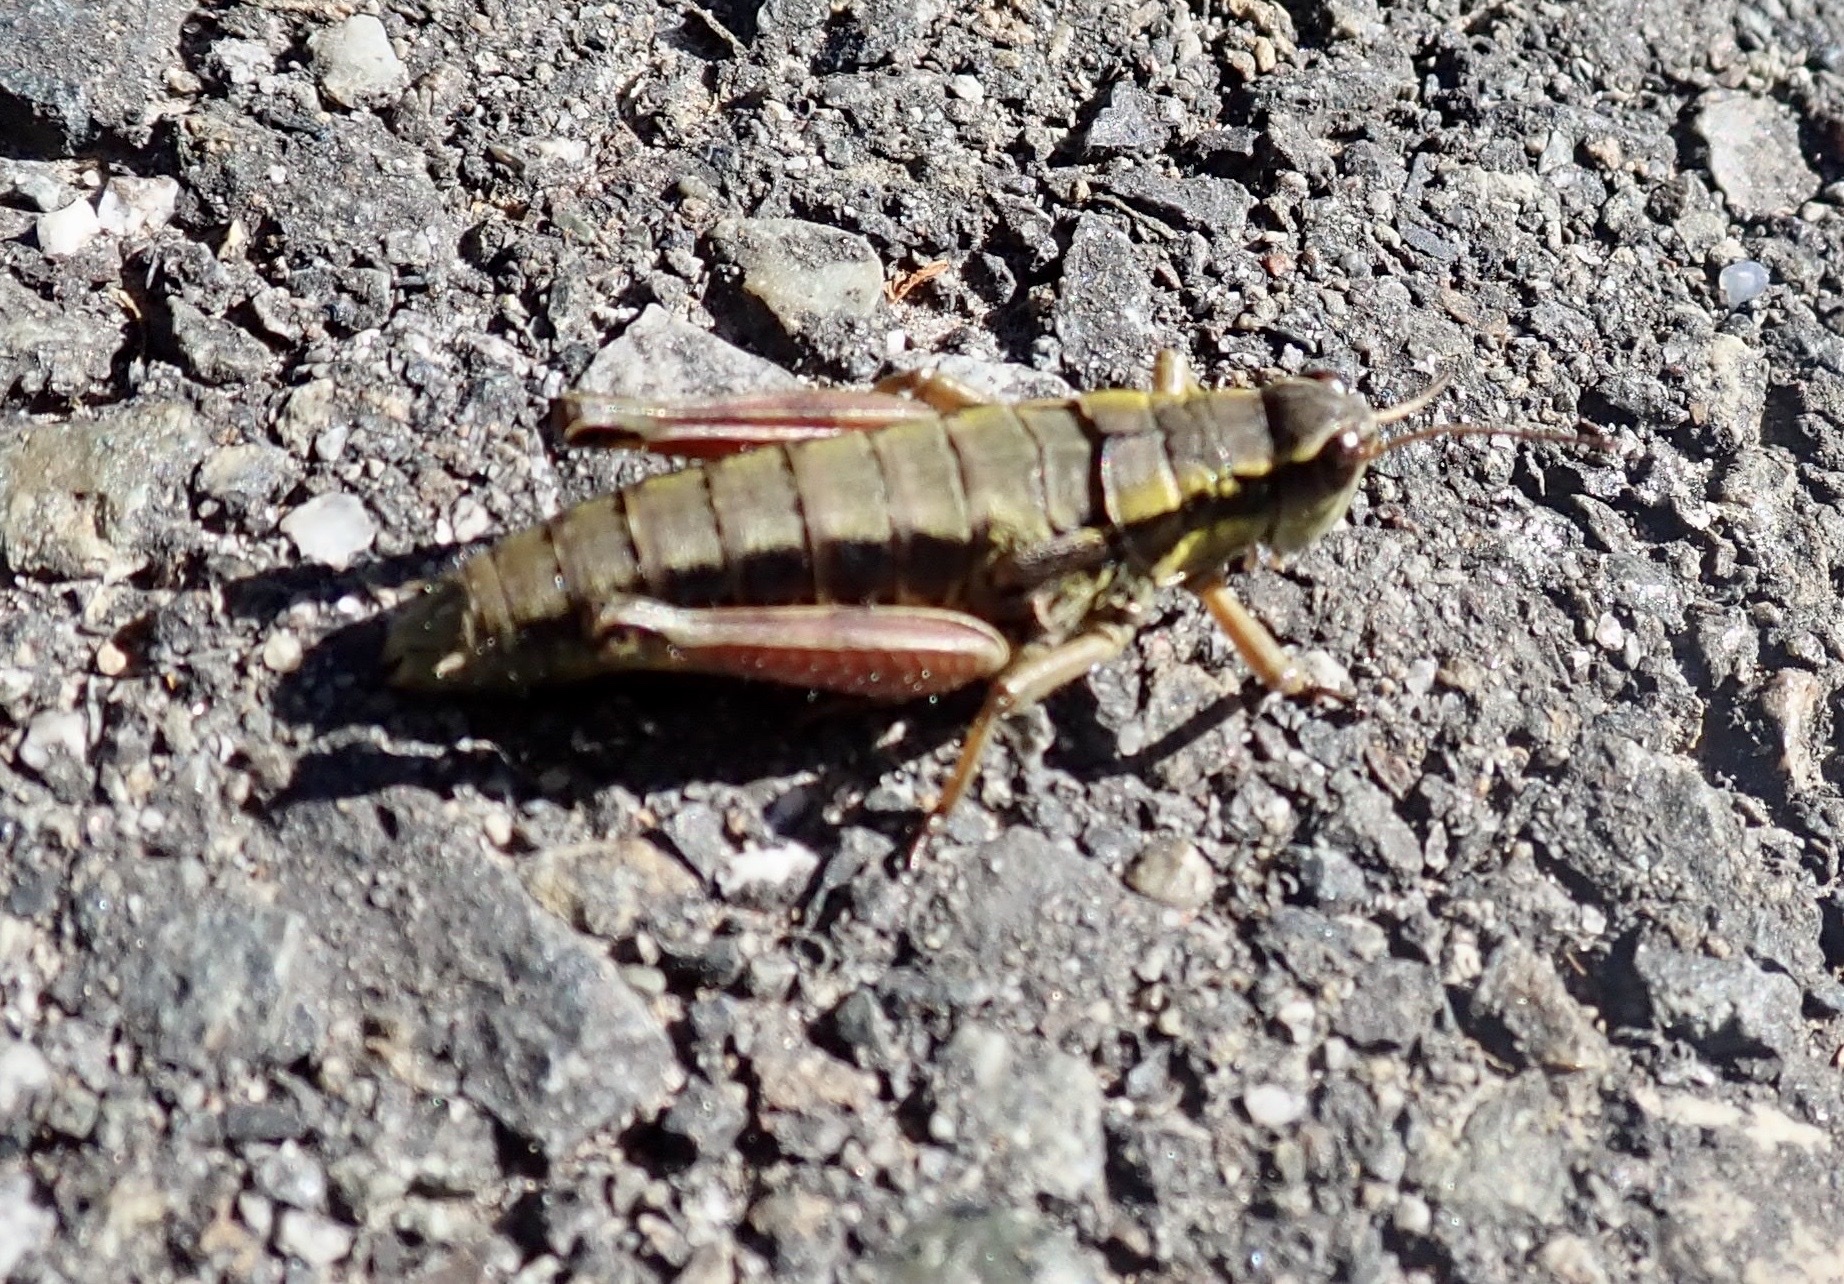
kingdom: Animalia
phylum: Arthropoda
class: Insecta
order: Orthoptera
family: Acrididae
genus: Prumnacris
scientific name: Prumnacris rainierensis
